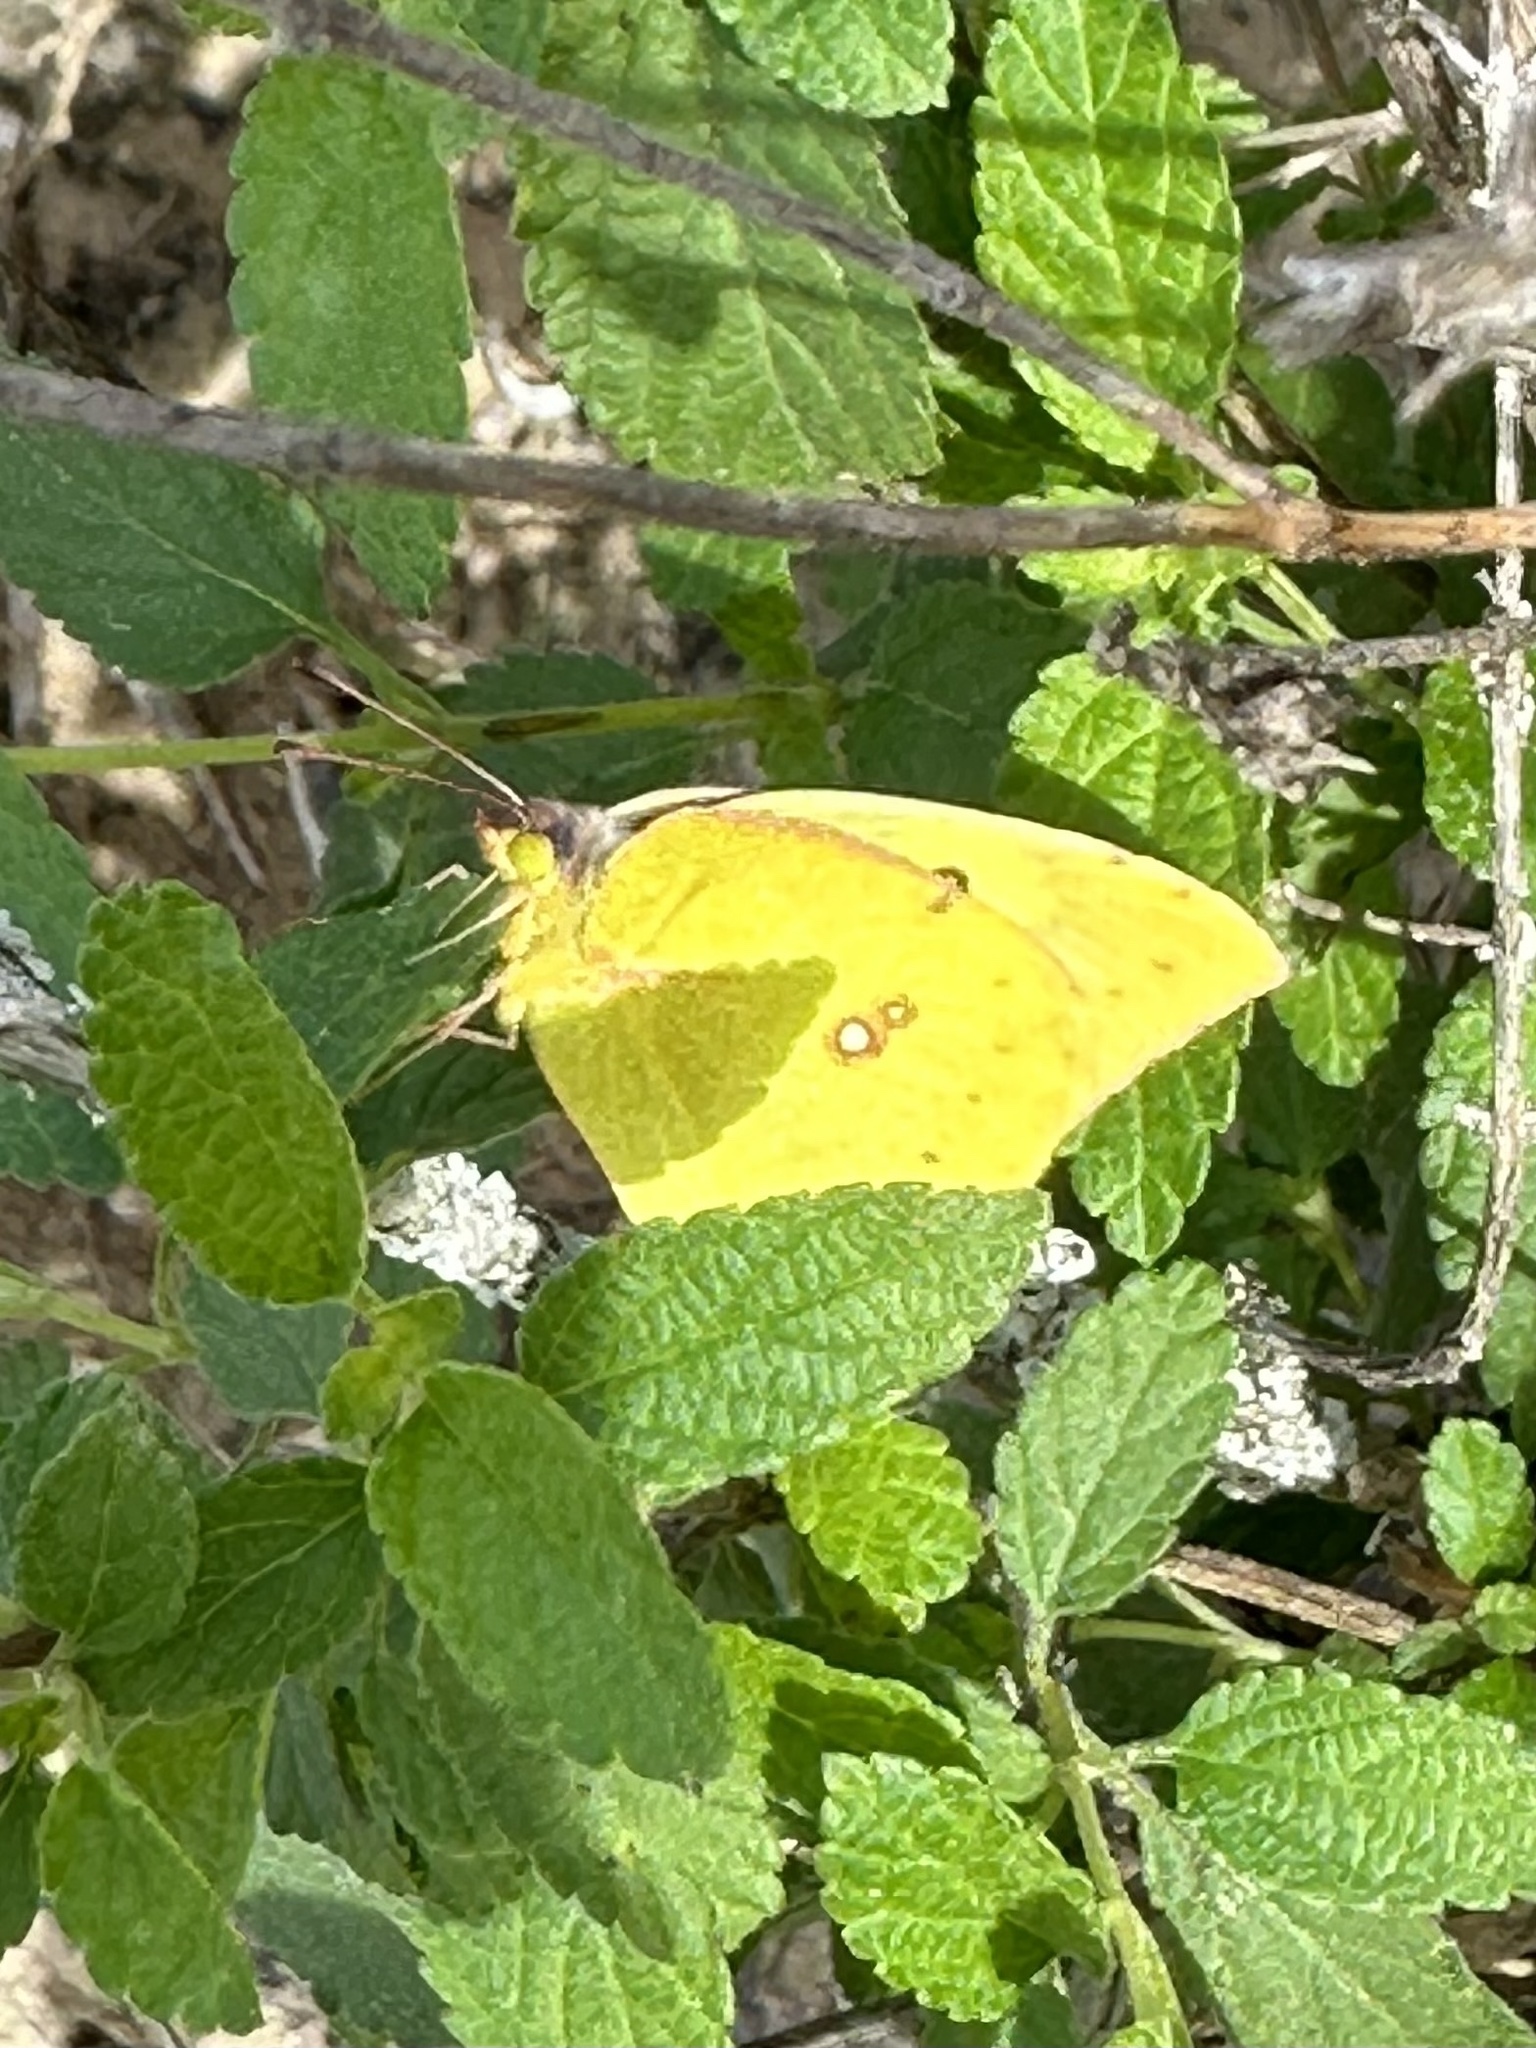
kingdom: Animalia
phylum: Arthropoda
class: Insecta
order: Lepidoptera
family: Pieridae
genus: Zerene
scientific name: Zerene cesonia
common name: Southern dogface
